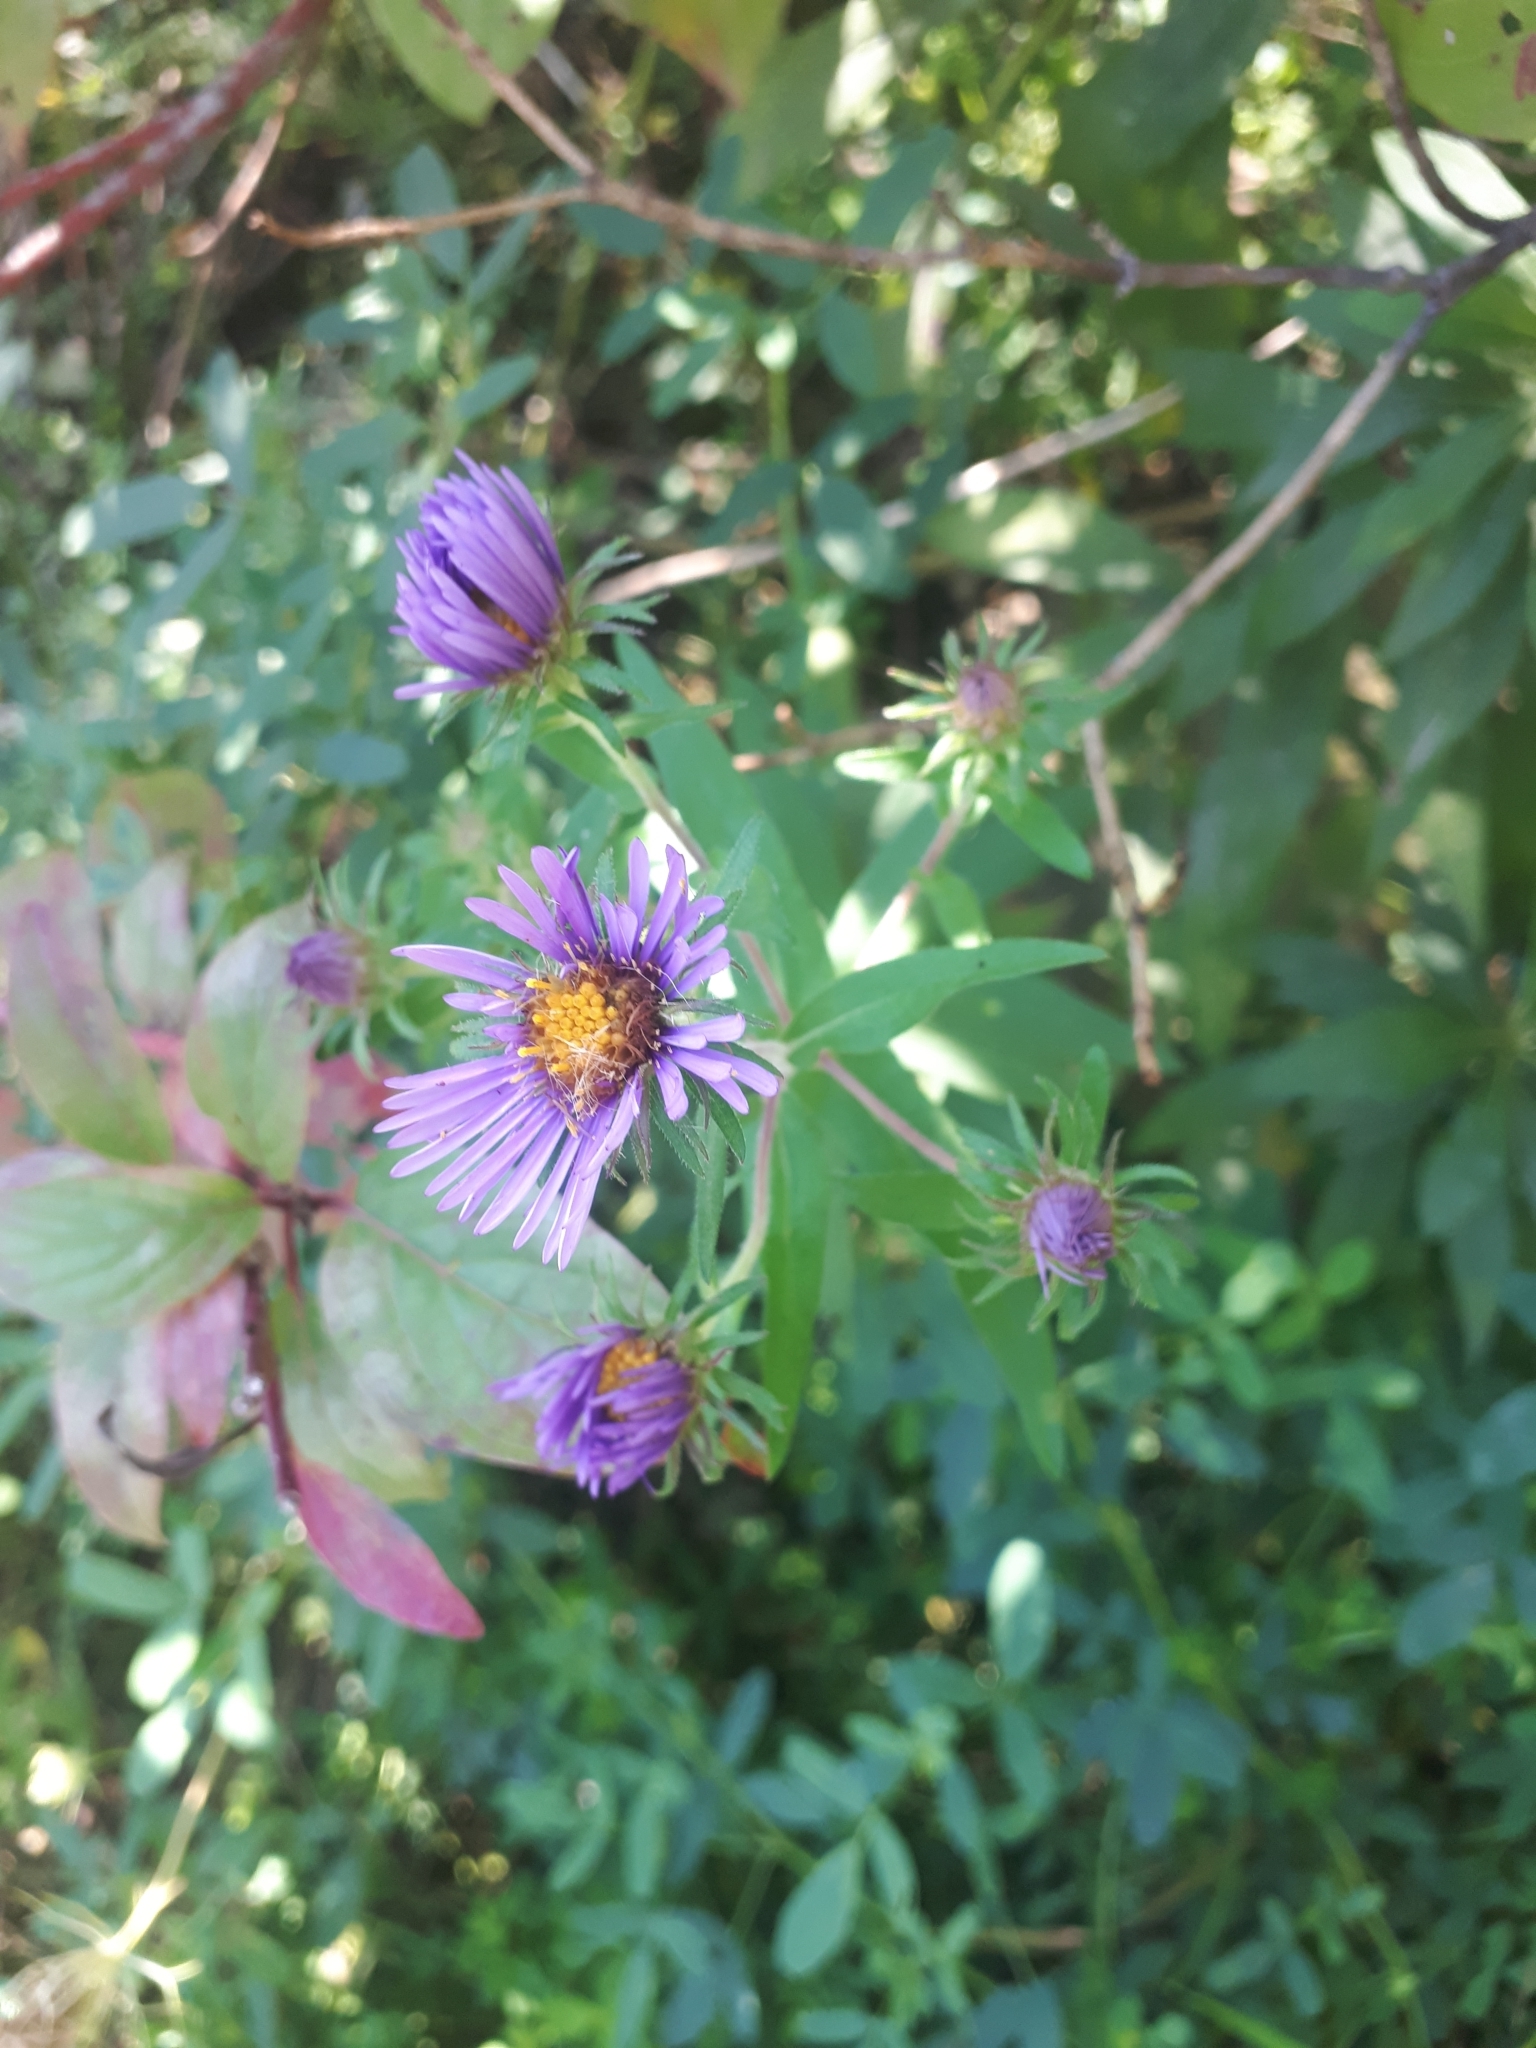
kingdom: Plantae
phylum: Tracheophyta
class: Magnoliopsida
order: Asterales
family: Asteraceae
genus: Symphyotrichum
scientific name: Symphyotrichum novae-angliae
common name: Michaelmas daisy
